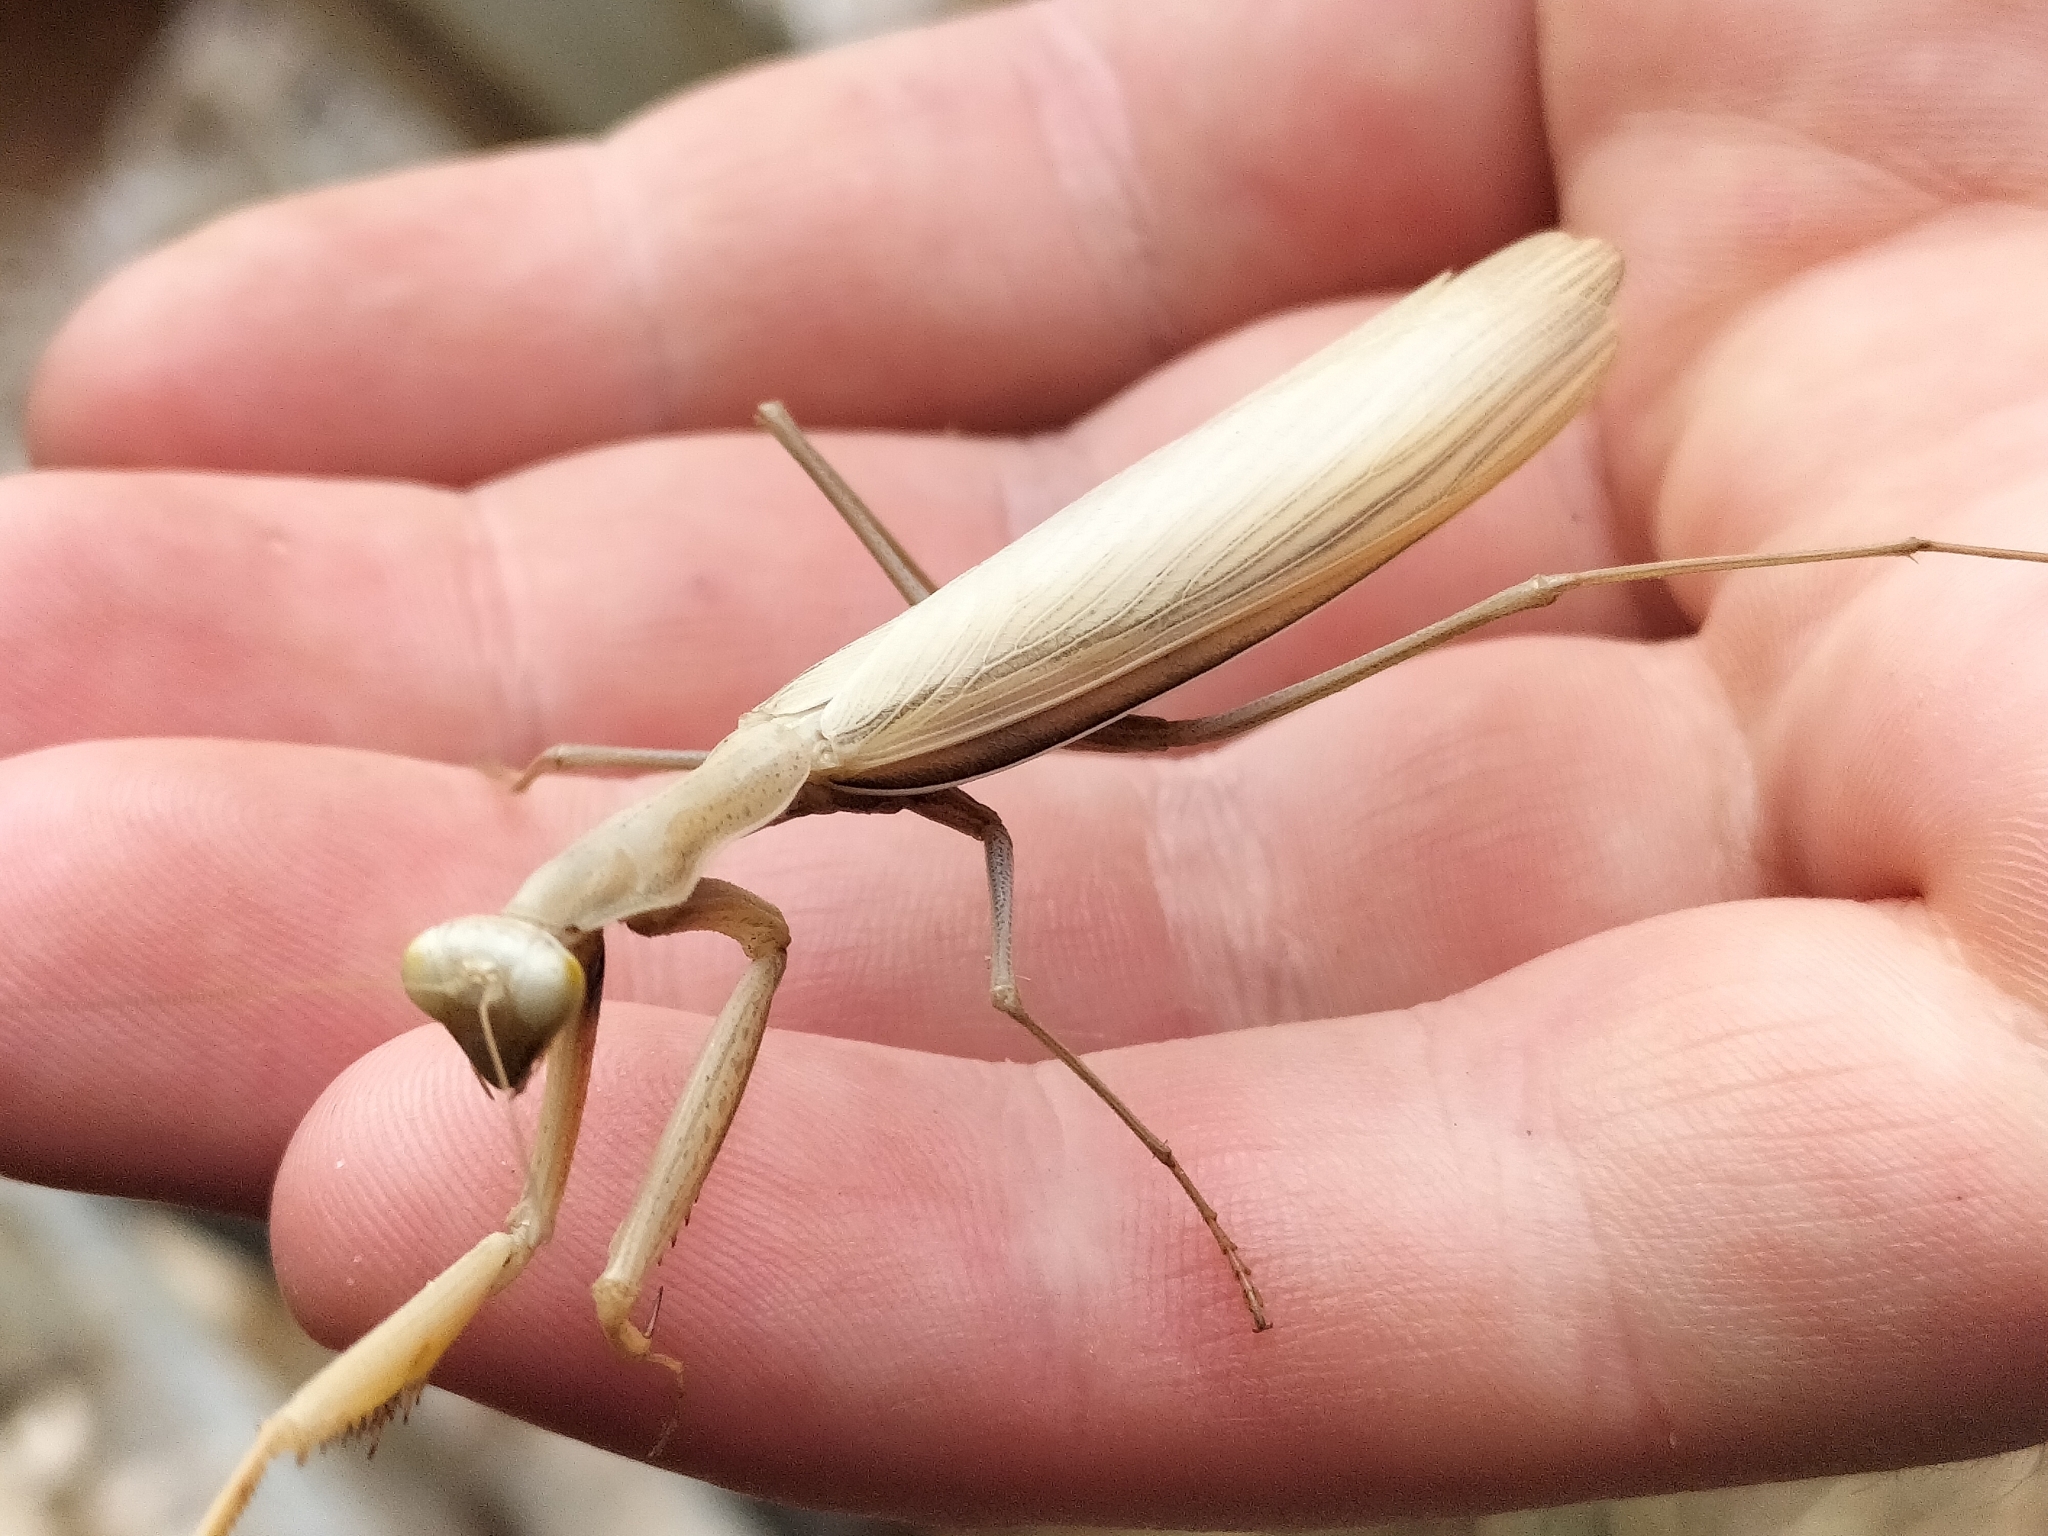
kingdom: Animalia
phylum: Arthropoda
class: Insecta
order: Mantodea
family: Mantidae
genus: Mantis
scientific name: Mantis octospilota
